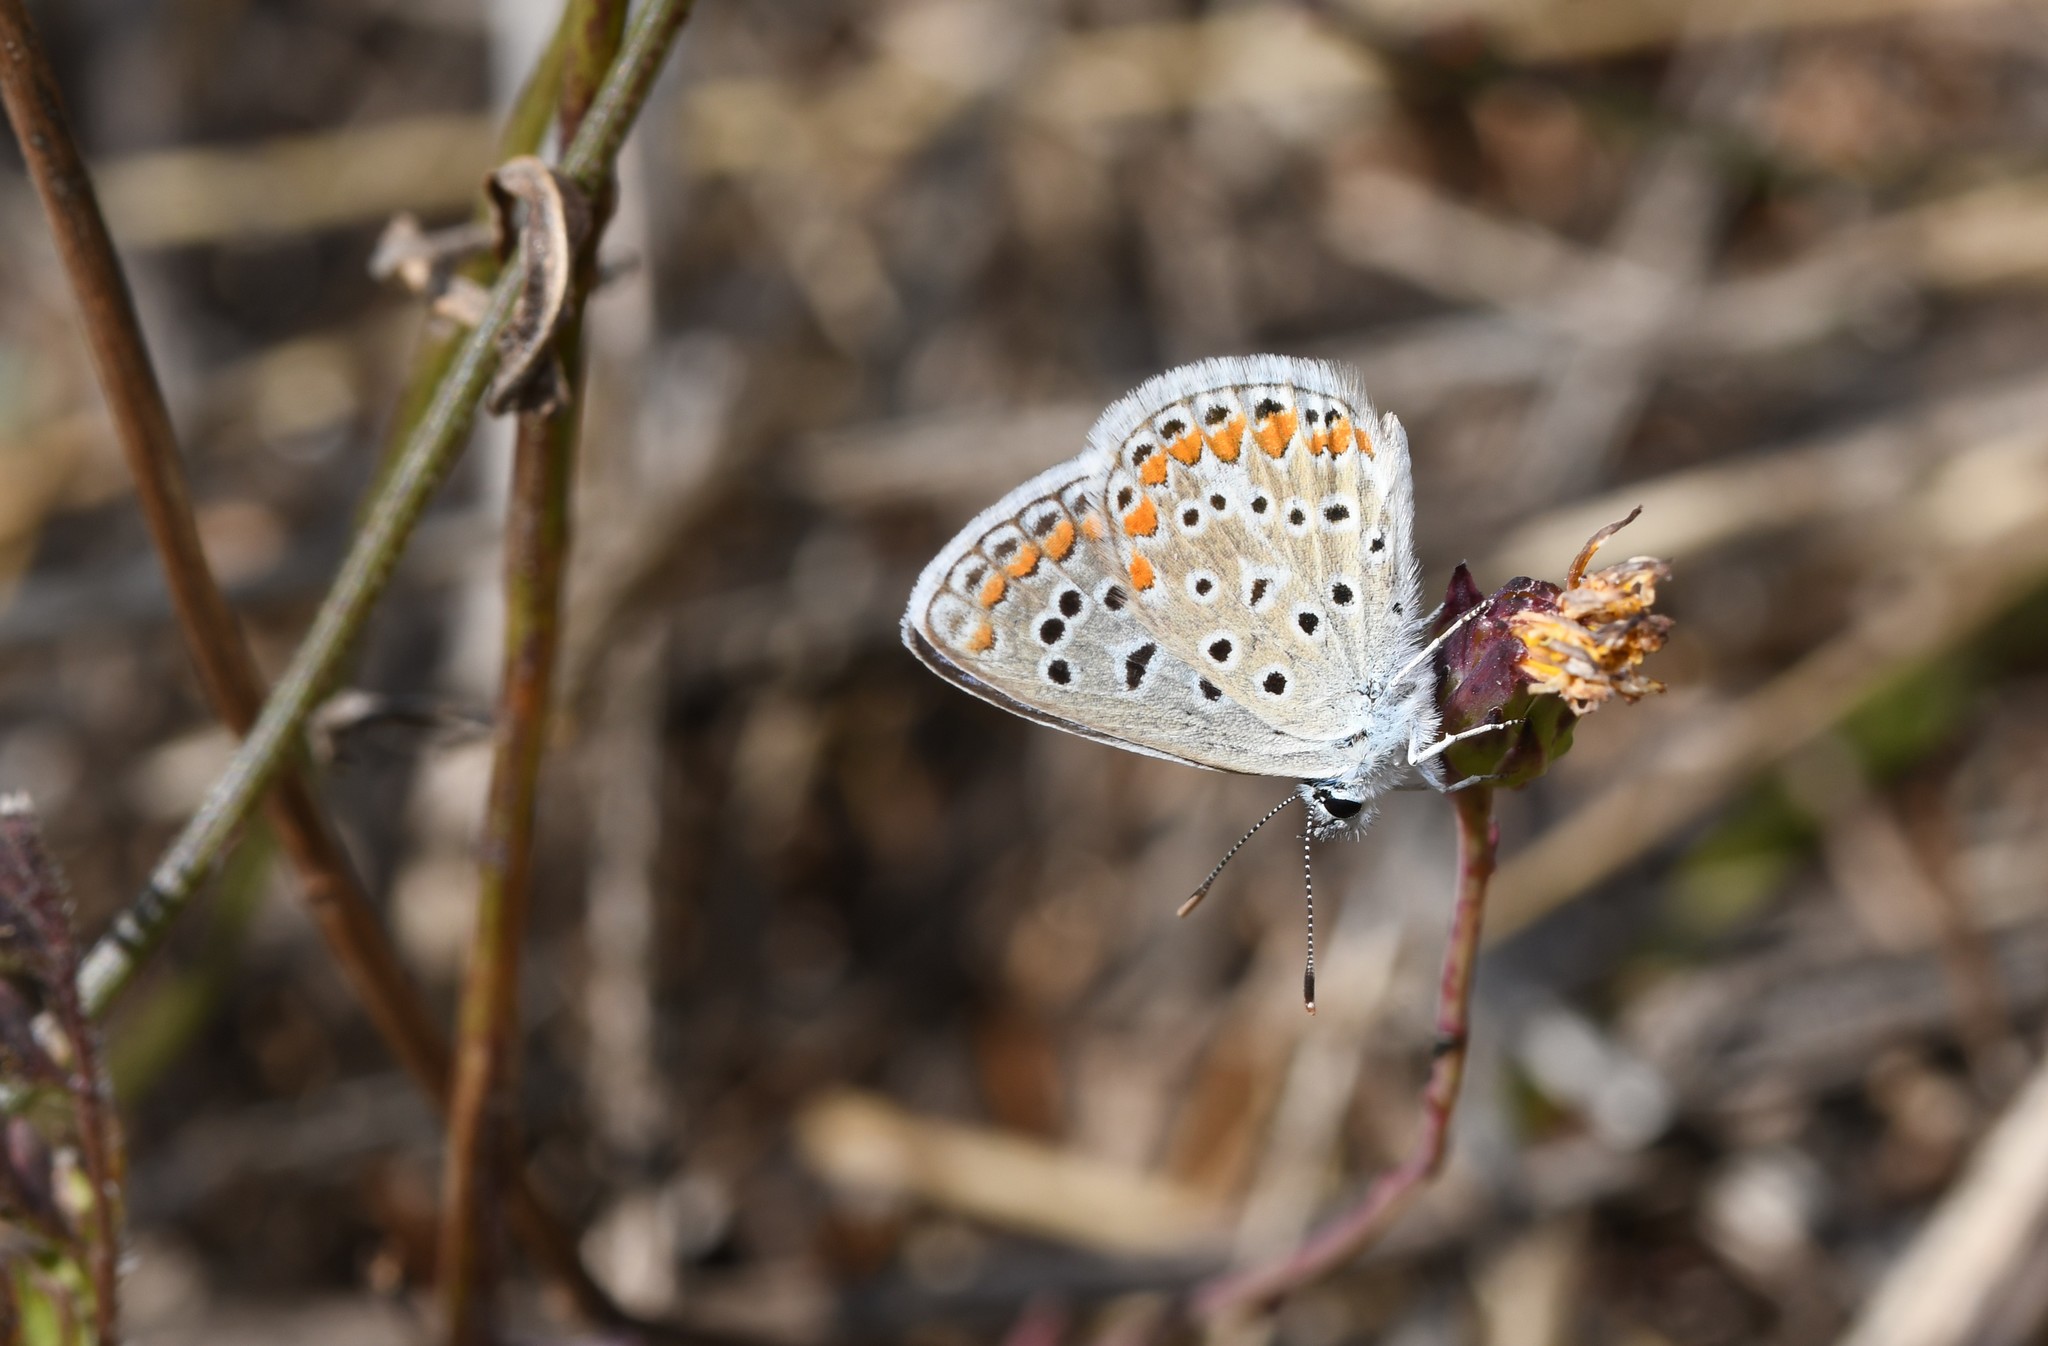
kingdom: Animalia
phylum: Arthropoda
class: Insecta
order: Lepidoptera
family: Lycaenidae
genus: Polyommatus
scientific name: Polyommatus icarus
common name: Common blue
